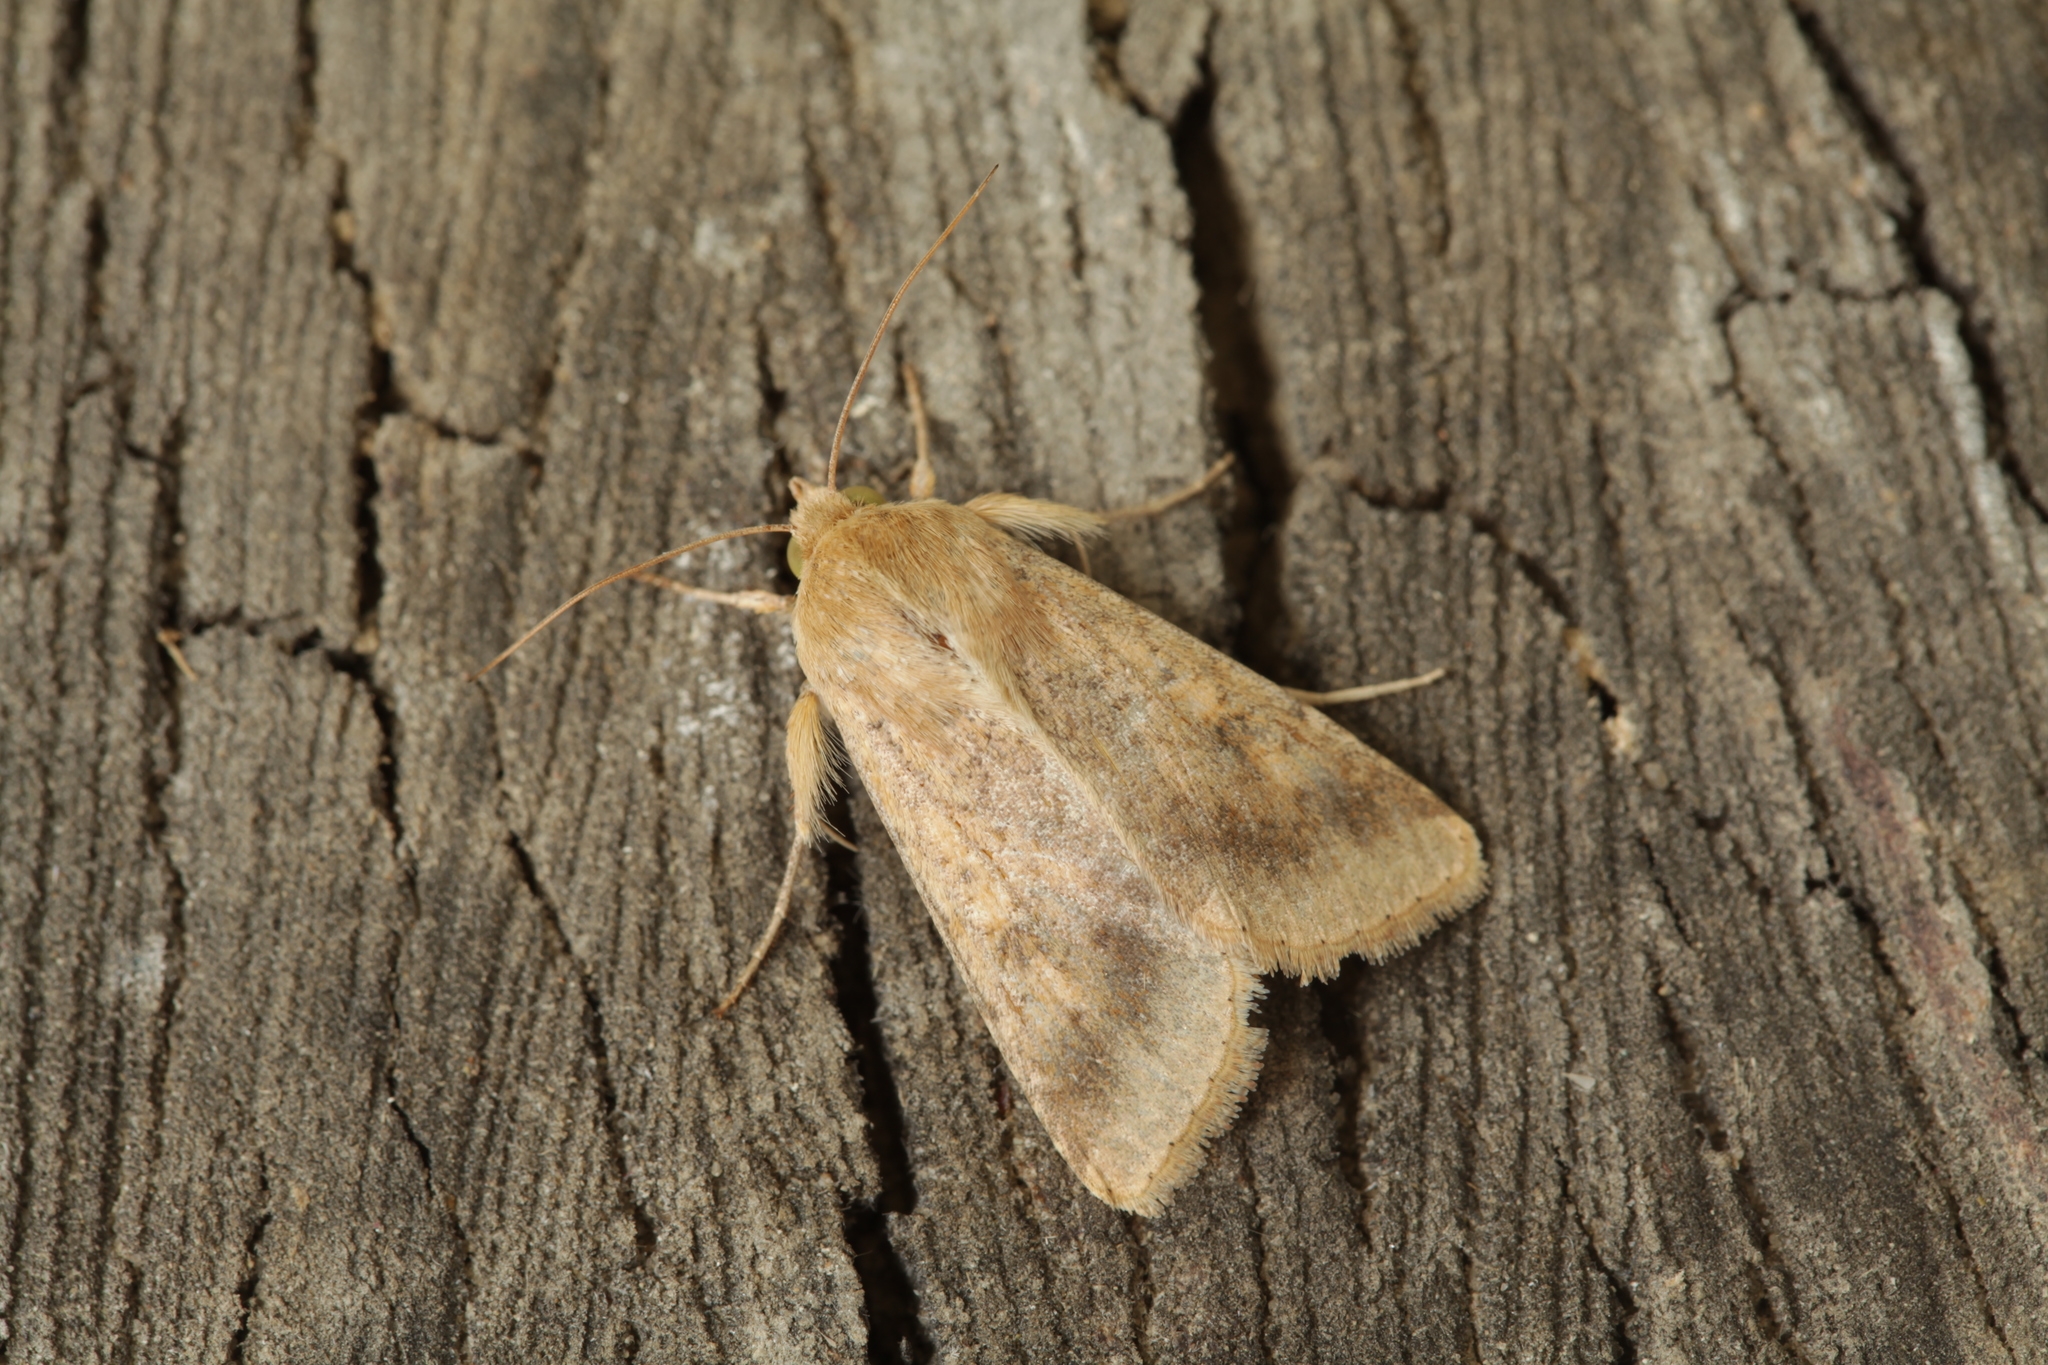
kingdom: Animalia
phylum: Arthropoda
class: Insecta
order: Lepidoptera
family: Noctuidae
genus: Helicoverpa
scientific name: Helicoverpa armigera
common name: Cotton bollworm
